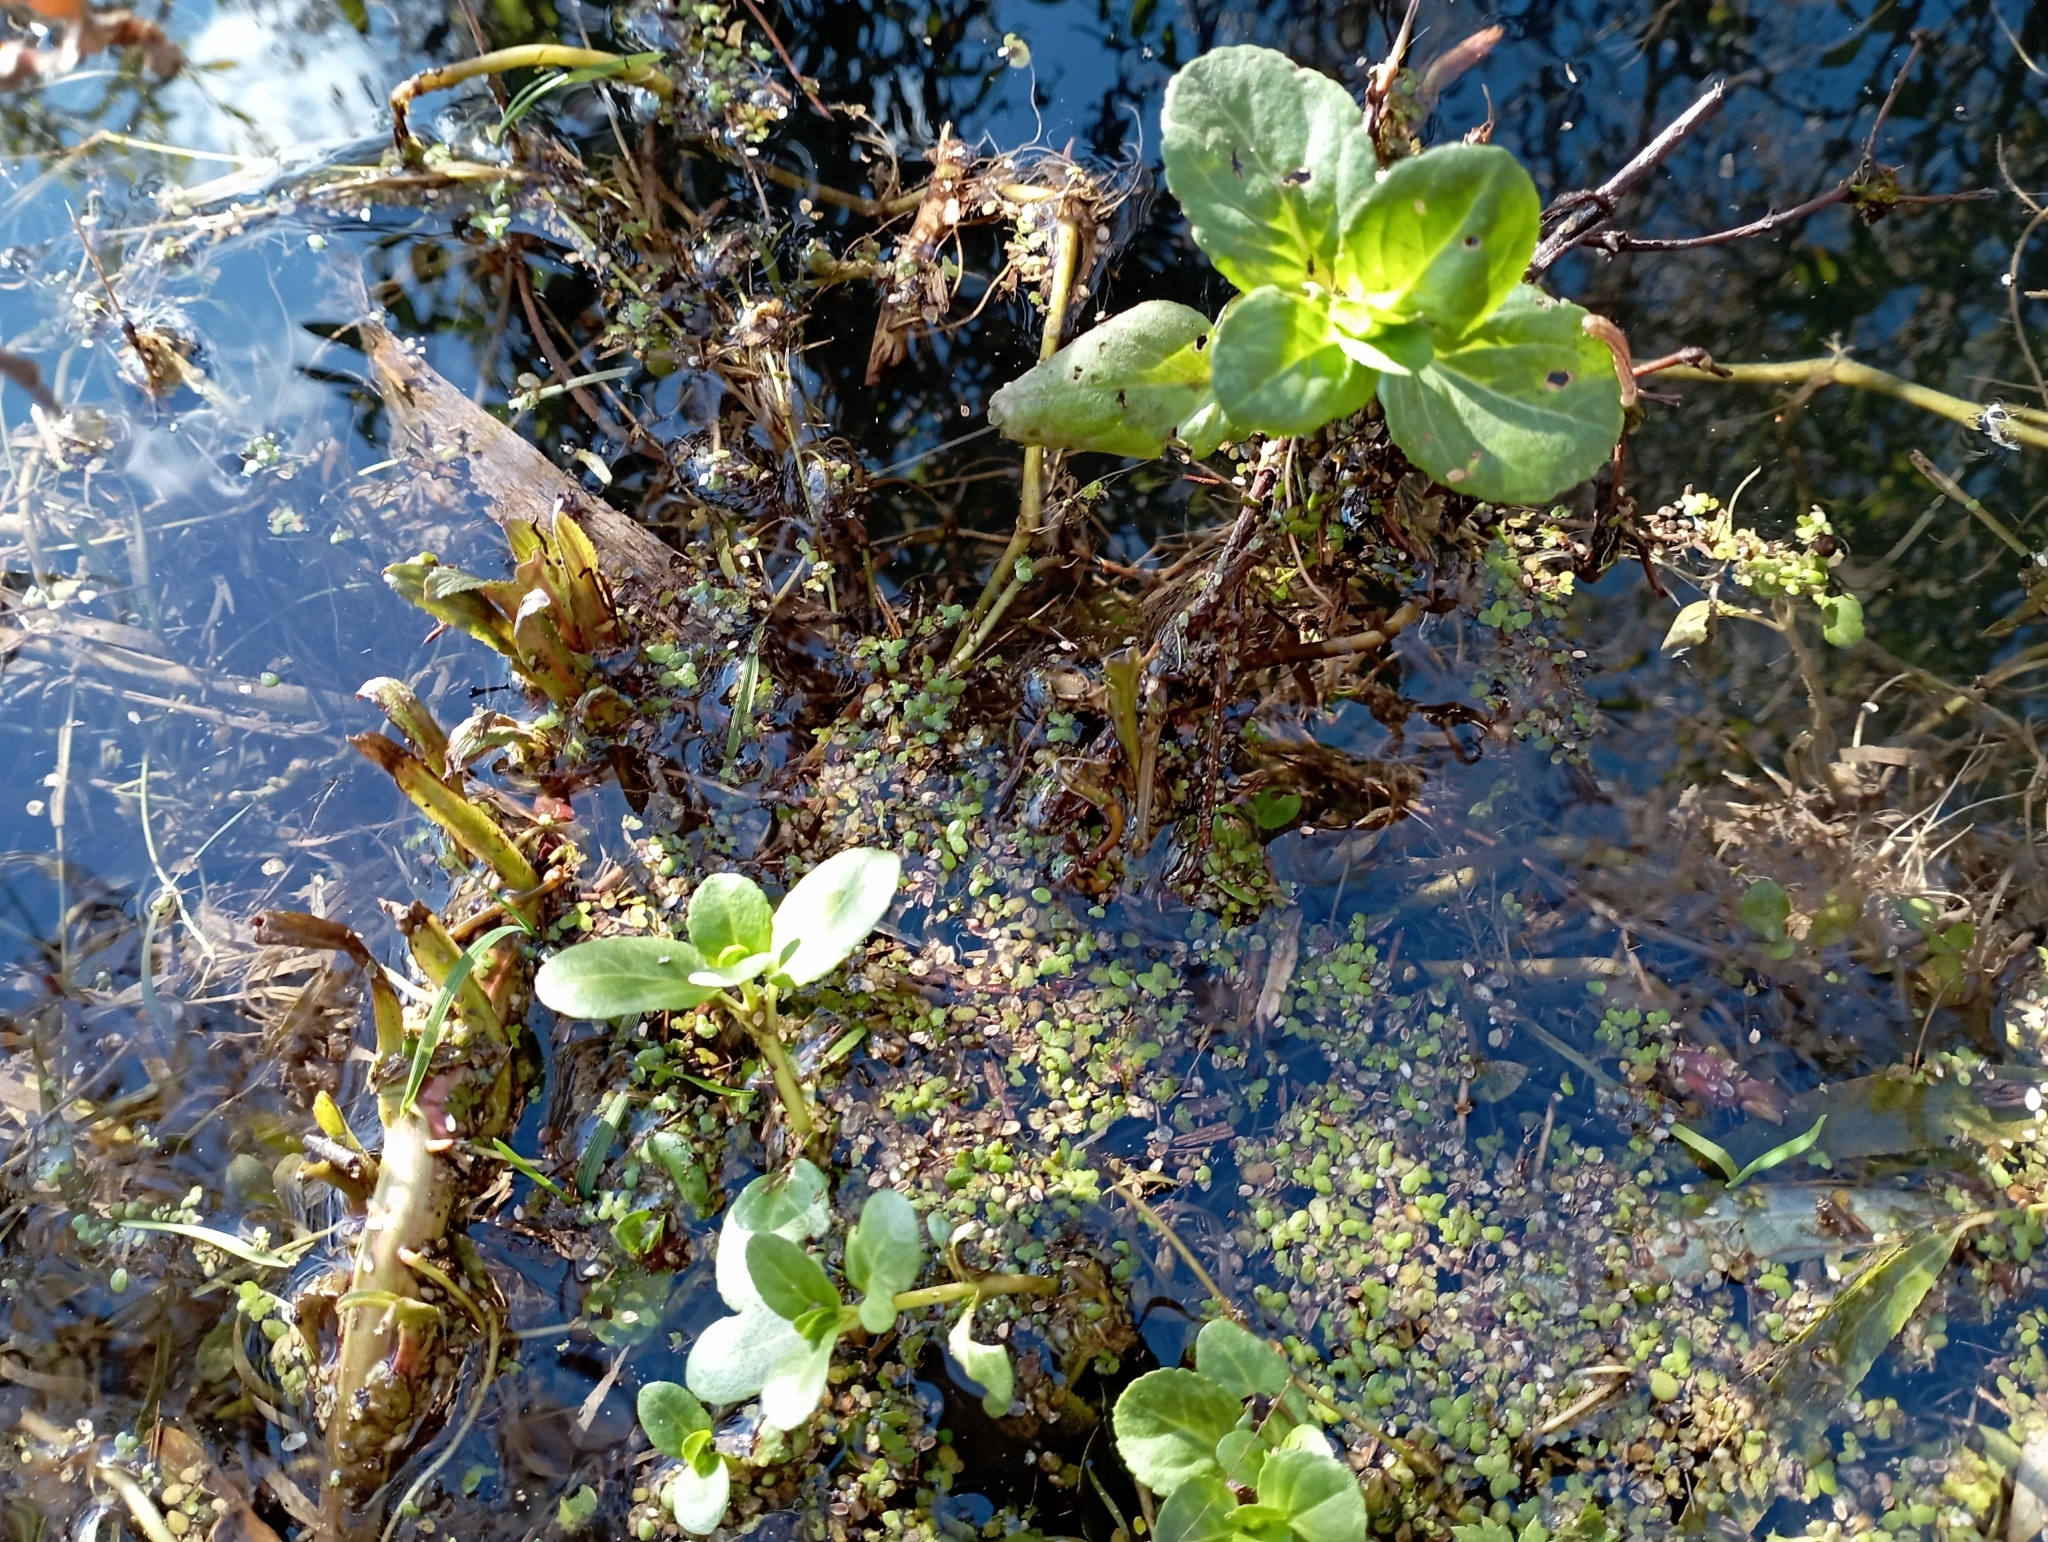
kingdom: Plantae
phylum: Tracheophyta
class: Magnoliopsida
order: Lamiales
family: Plantaginaceae
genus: Veronica
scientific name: Veronica beccabunga
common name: Brooklime
